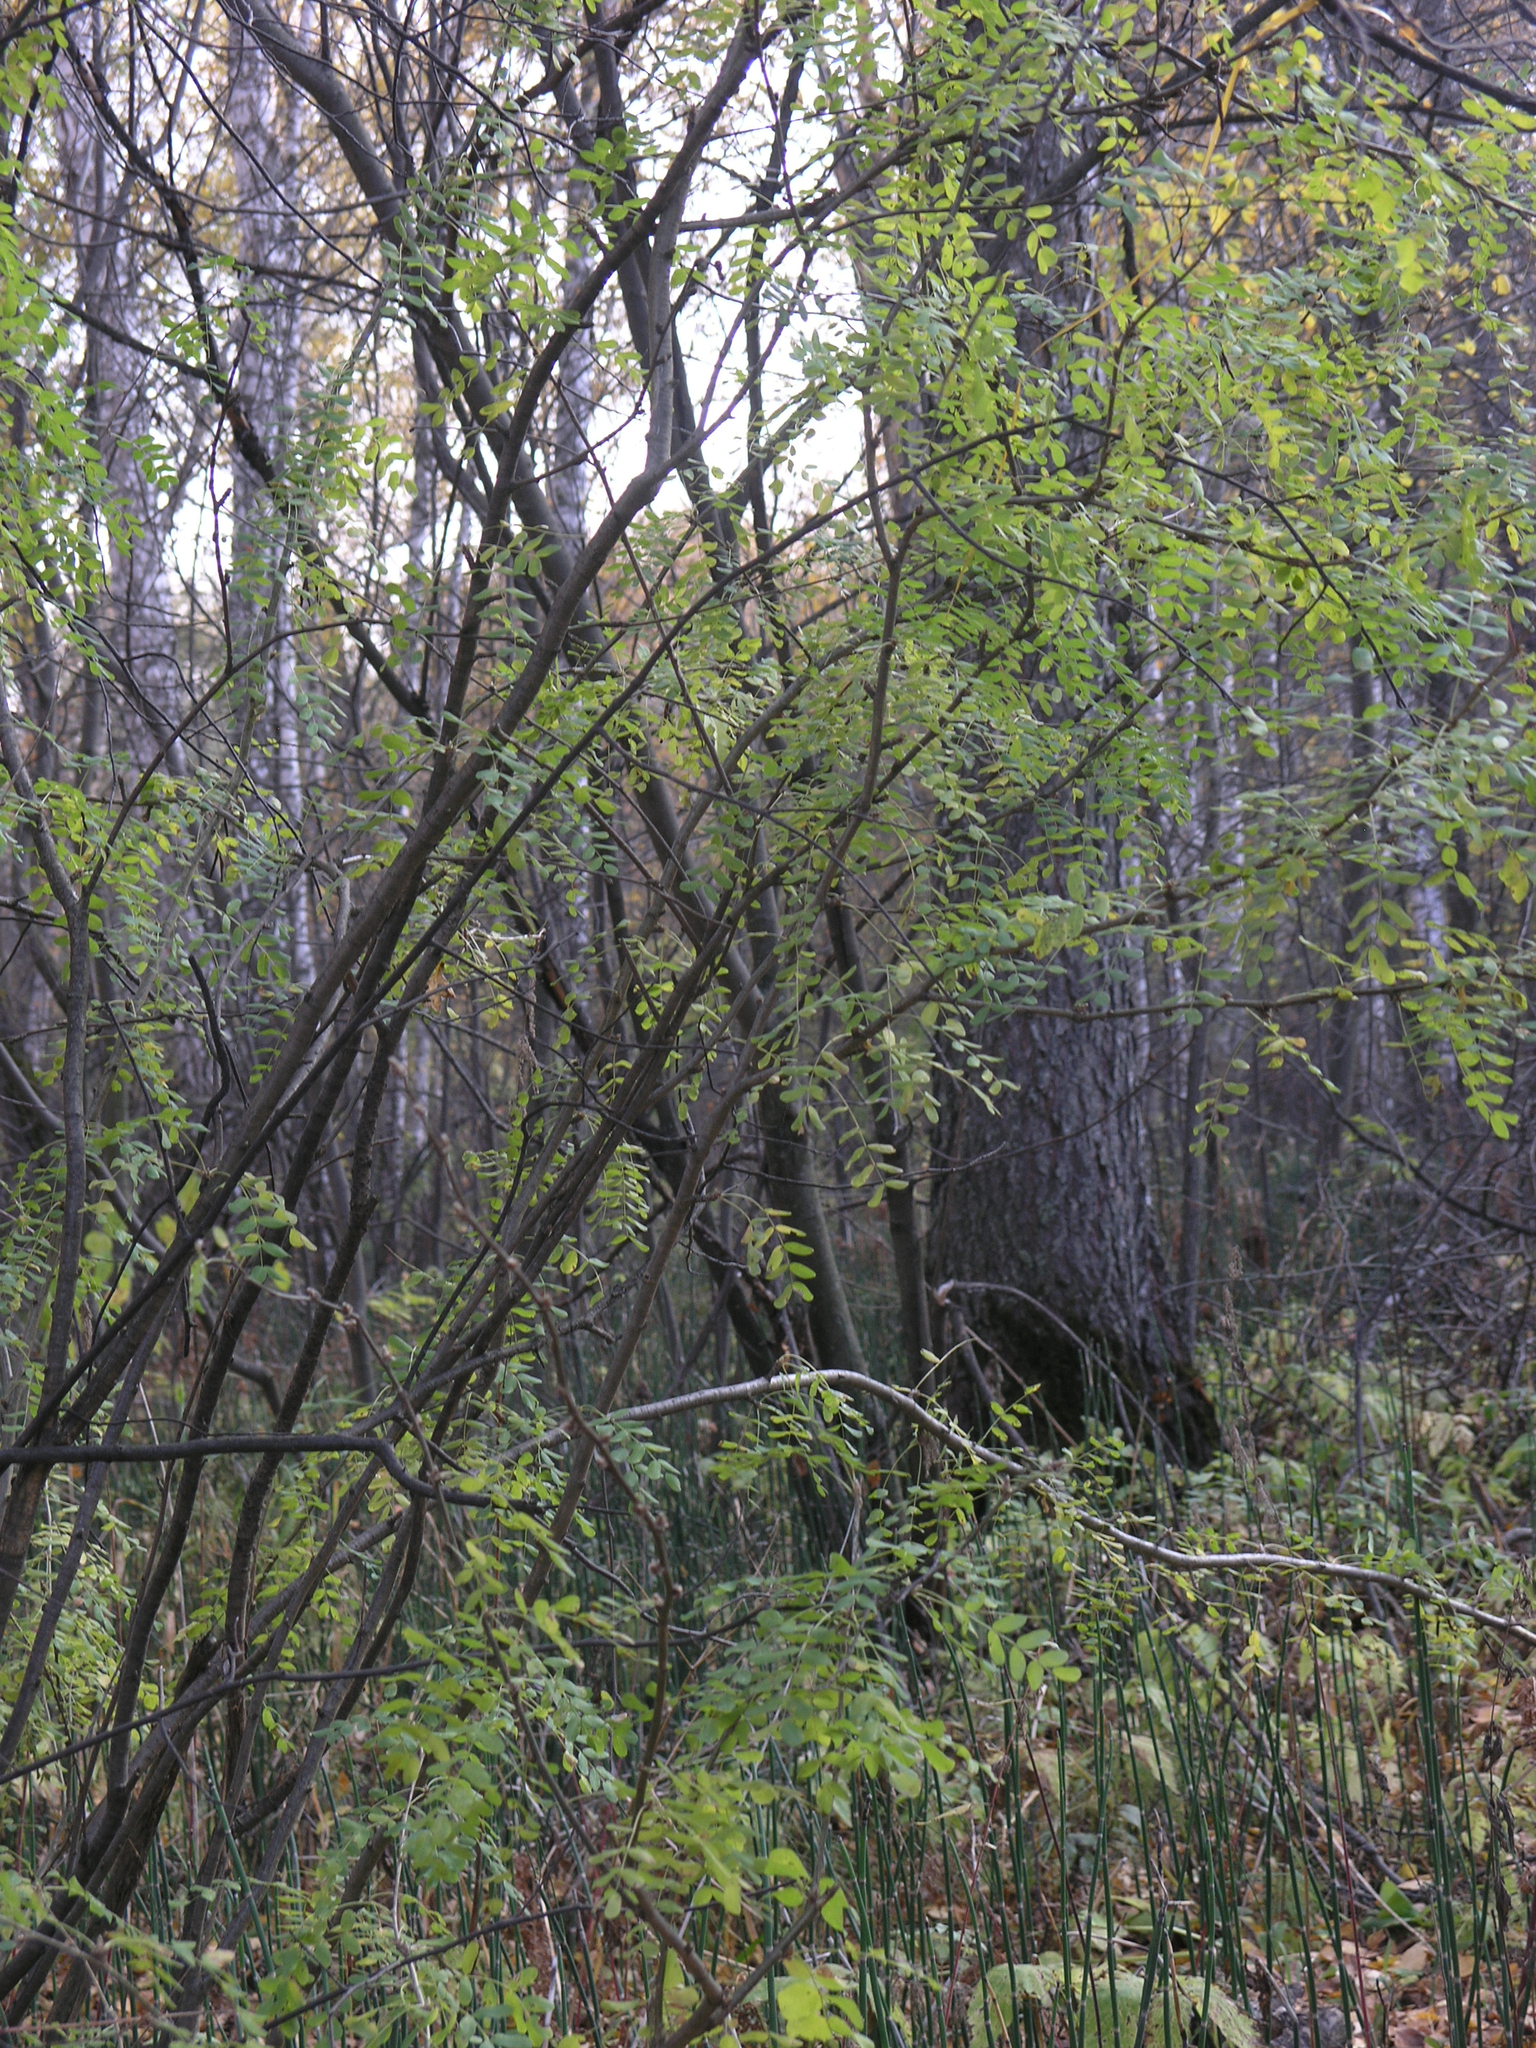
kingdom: Plantae
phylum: Tracheophyta
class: Magnoliopsida
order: Fabales
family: Fabaceae
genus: Caragana
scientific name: Caragana arborescens
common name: Siberian peashrub
